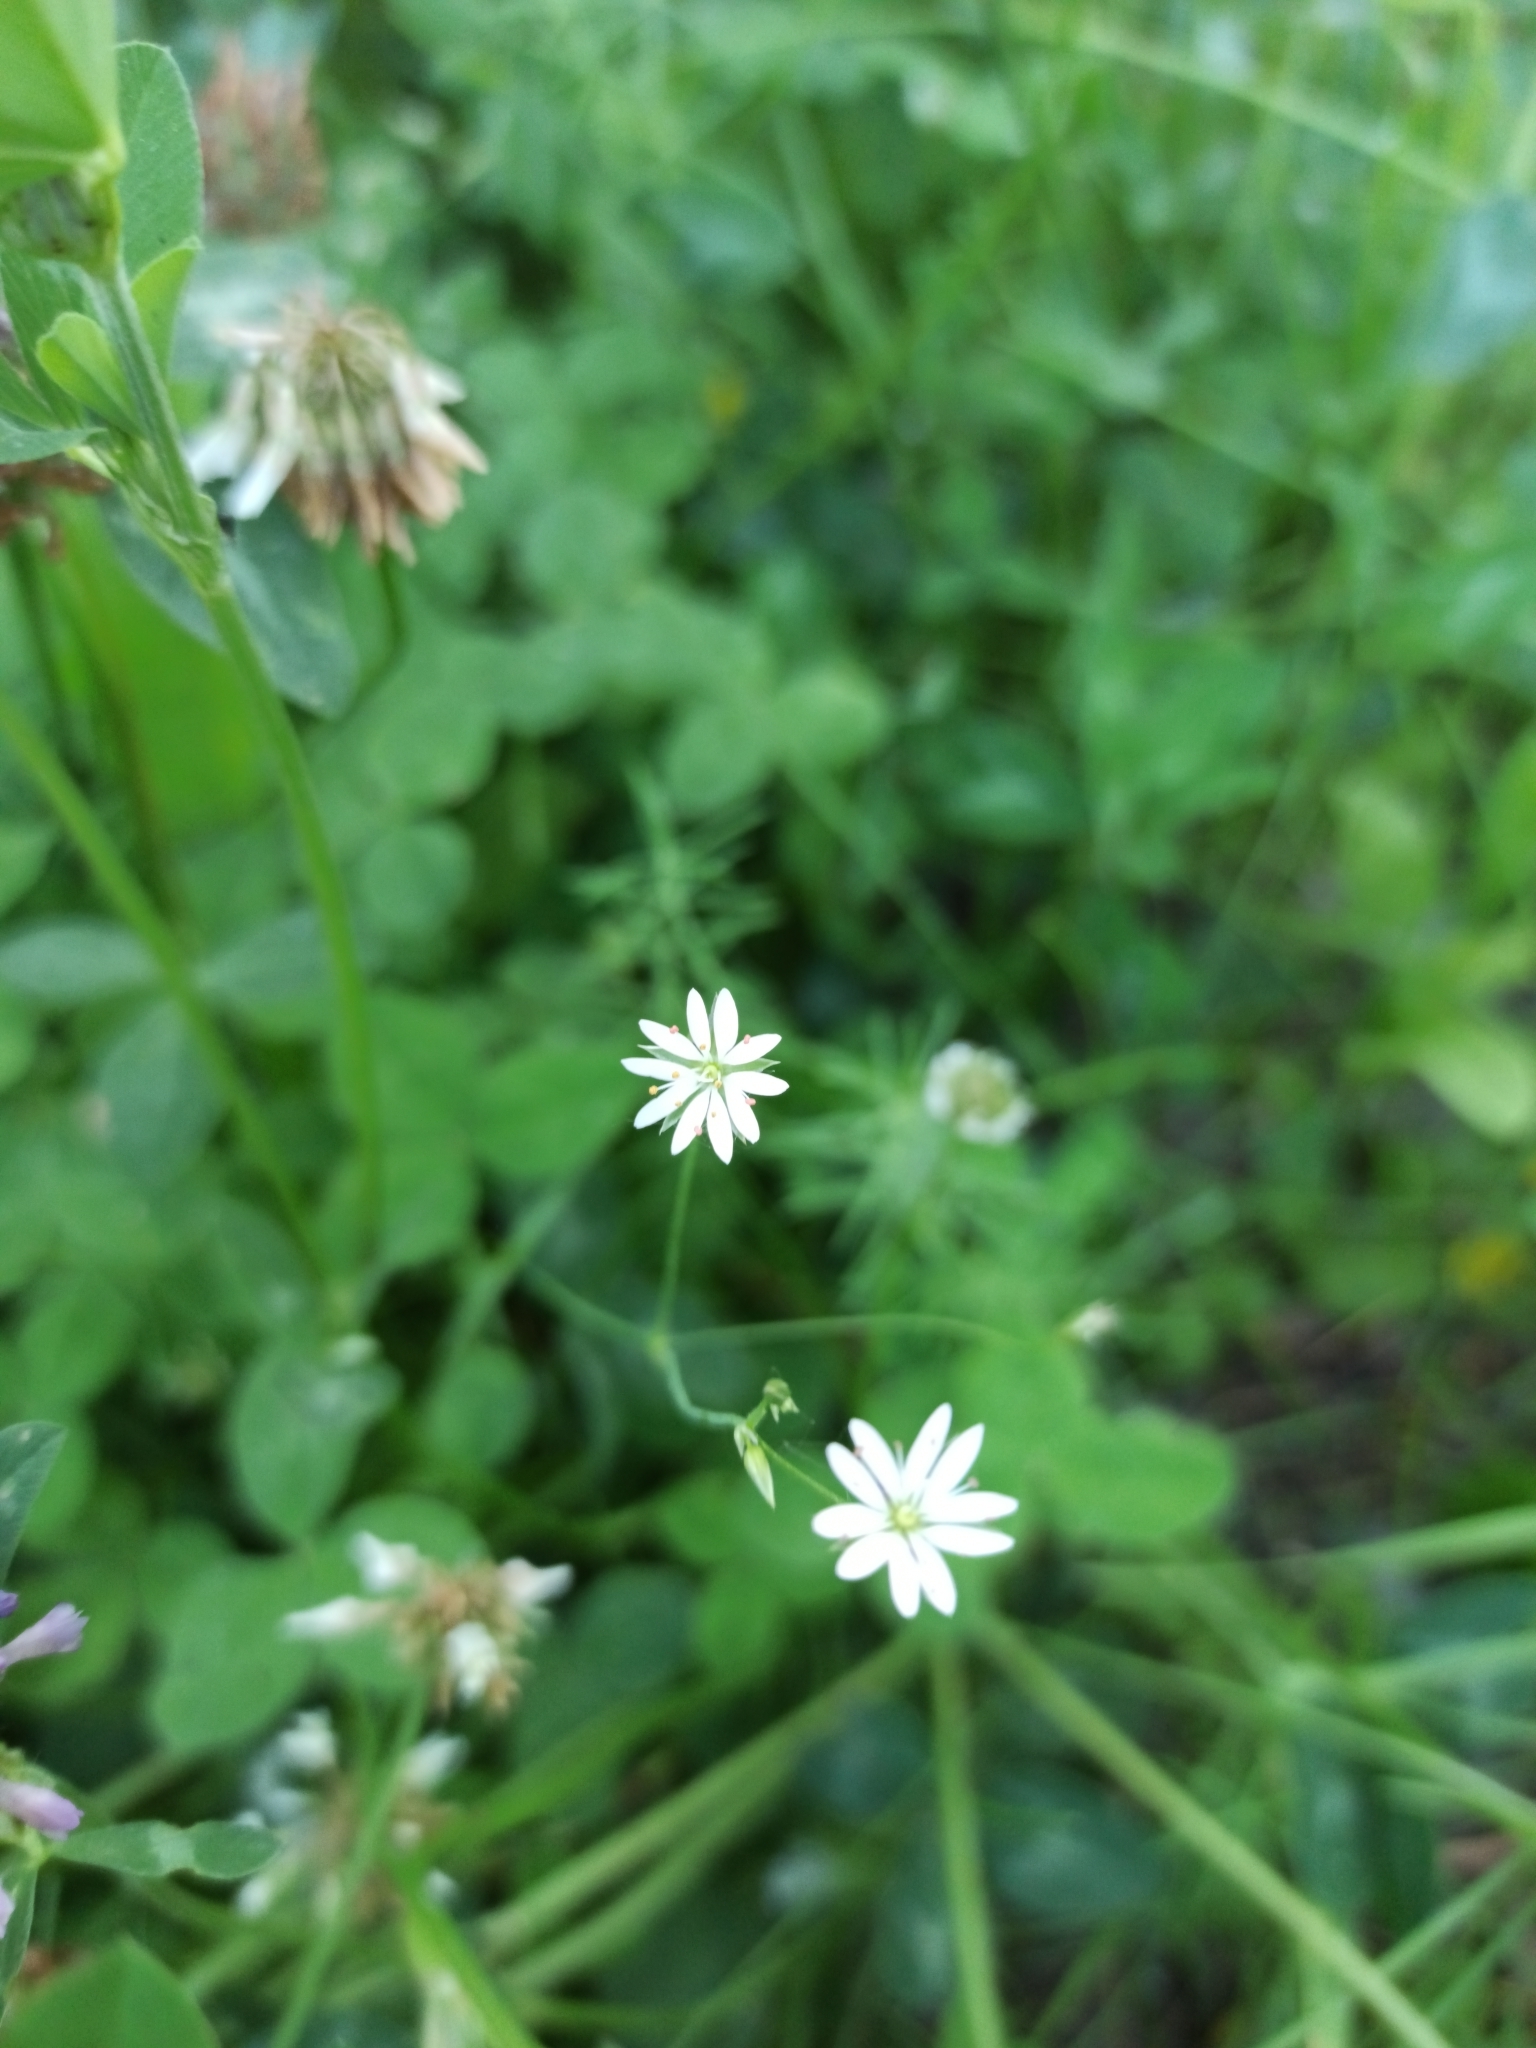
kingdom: Plantae
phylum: Tracheophyta
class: Magnoliopsida
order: Caryophyllales
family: Caryophyllaceae
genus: Stellaria
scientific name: Stellaria graminea
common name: Grass-like starwort
